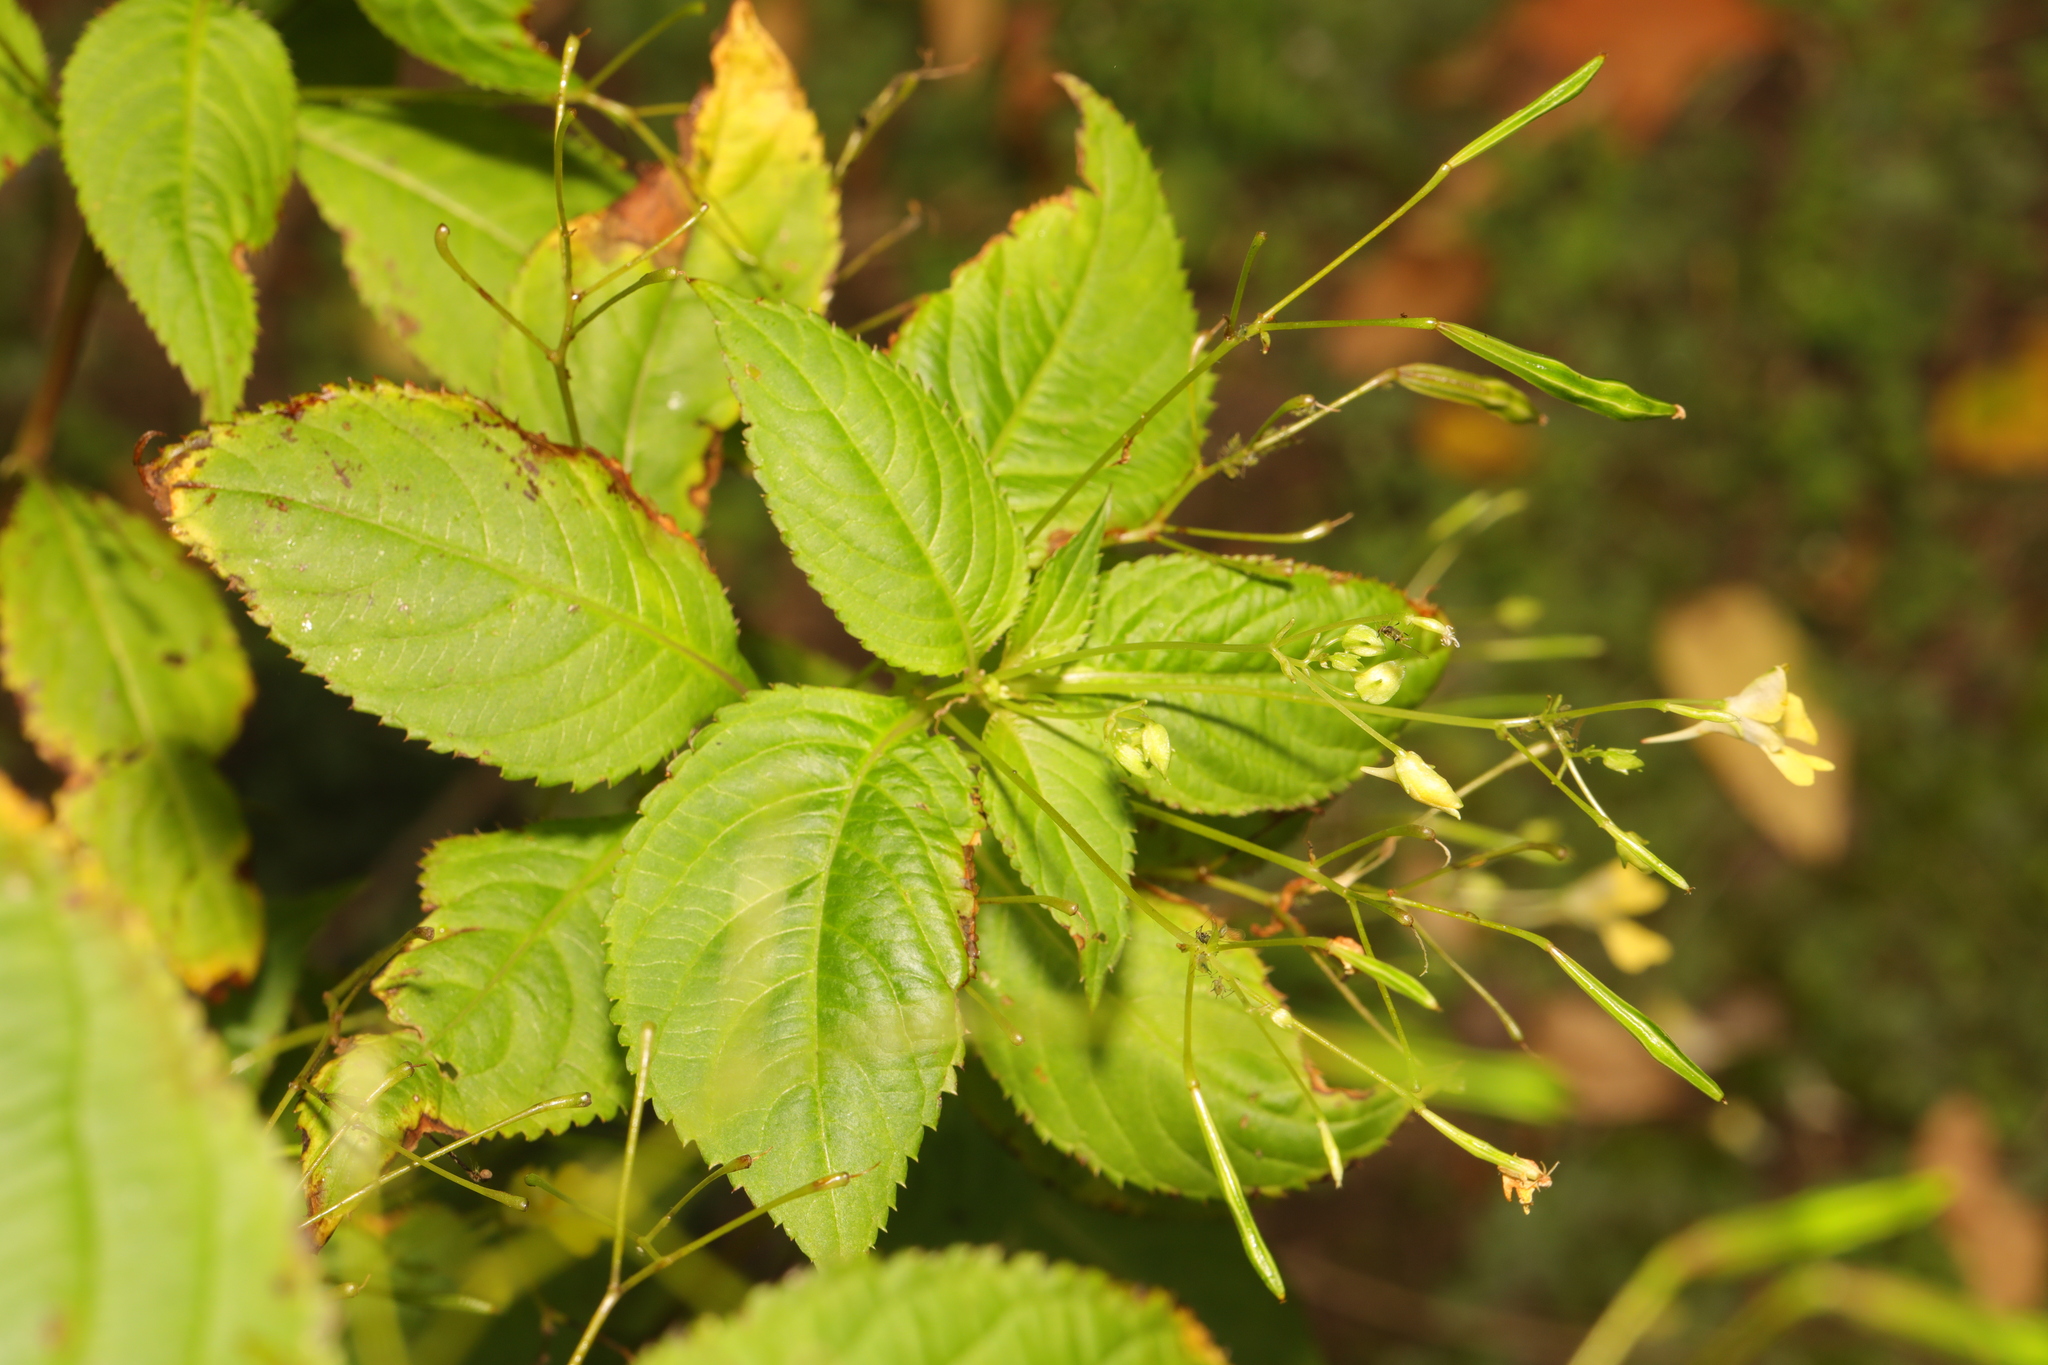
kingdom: Plantae
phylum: Tracheophyta
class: Magnoliopsida
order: Ericales
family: Balsaminaceae
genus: Impatiens
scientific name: Impatiens parviflora
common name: Small balsam
